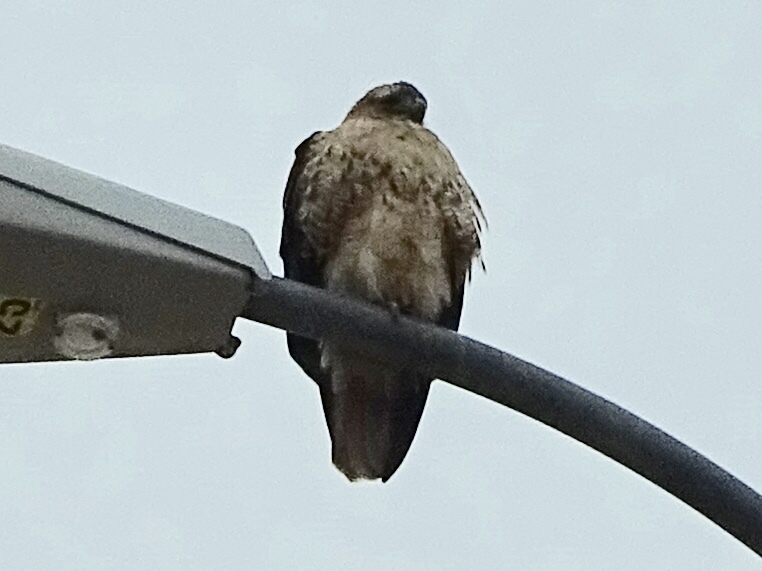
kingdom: Animalia
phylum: Chordata
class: Aves
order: Accipitriformes
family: Accipitridae
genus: Buteo
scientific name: Buteo jamaicensis
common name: Red-tailed hawk
